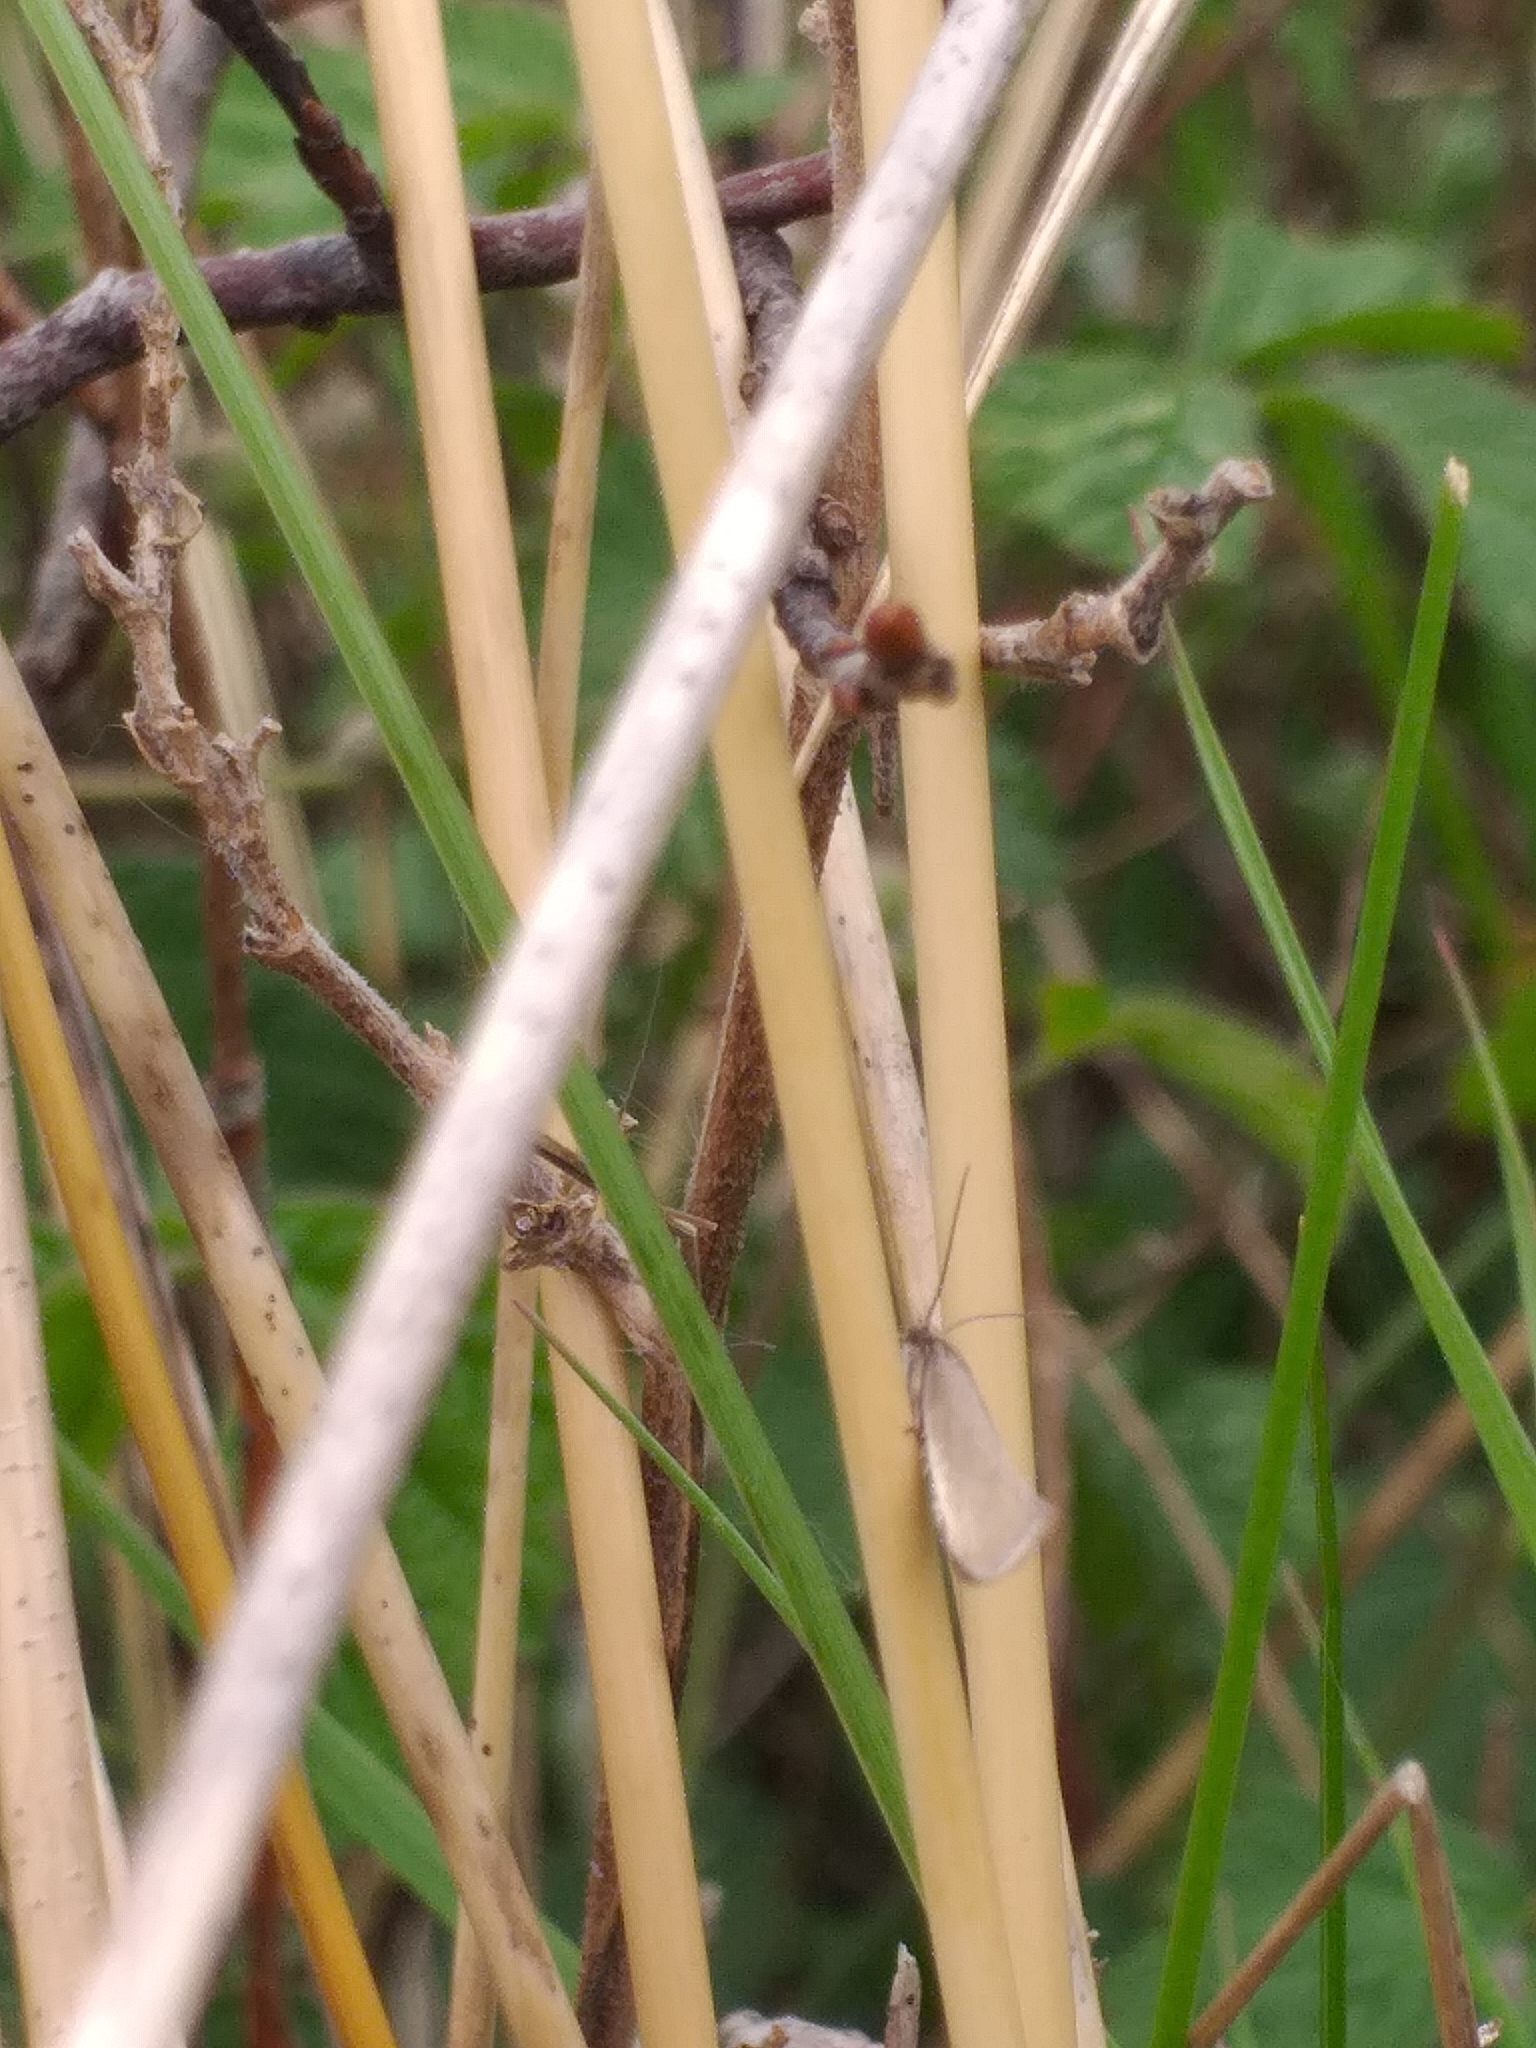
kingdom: Animalia
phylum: Arthropoda
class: Insecta
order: Lepidoptera
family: Elachistidae
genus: Elachista
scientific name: Elachista argentella
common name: Swan-feather dwarf
